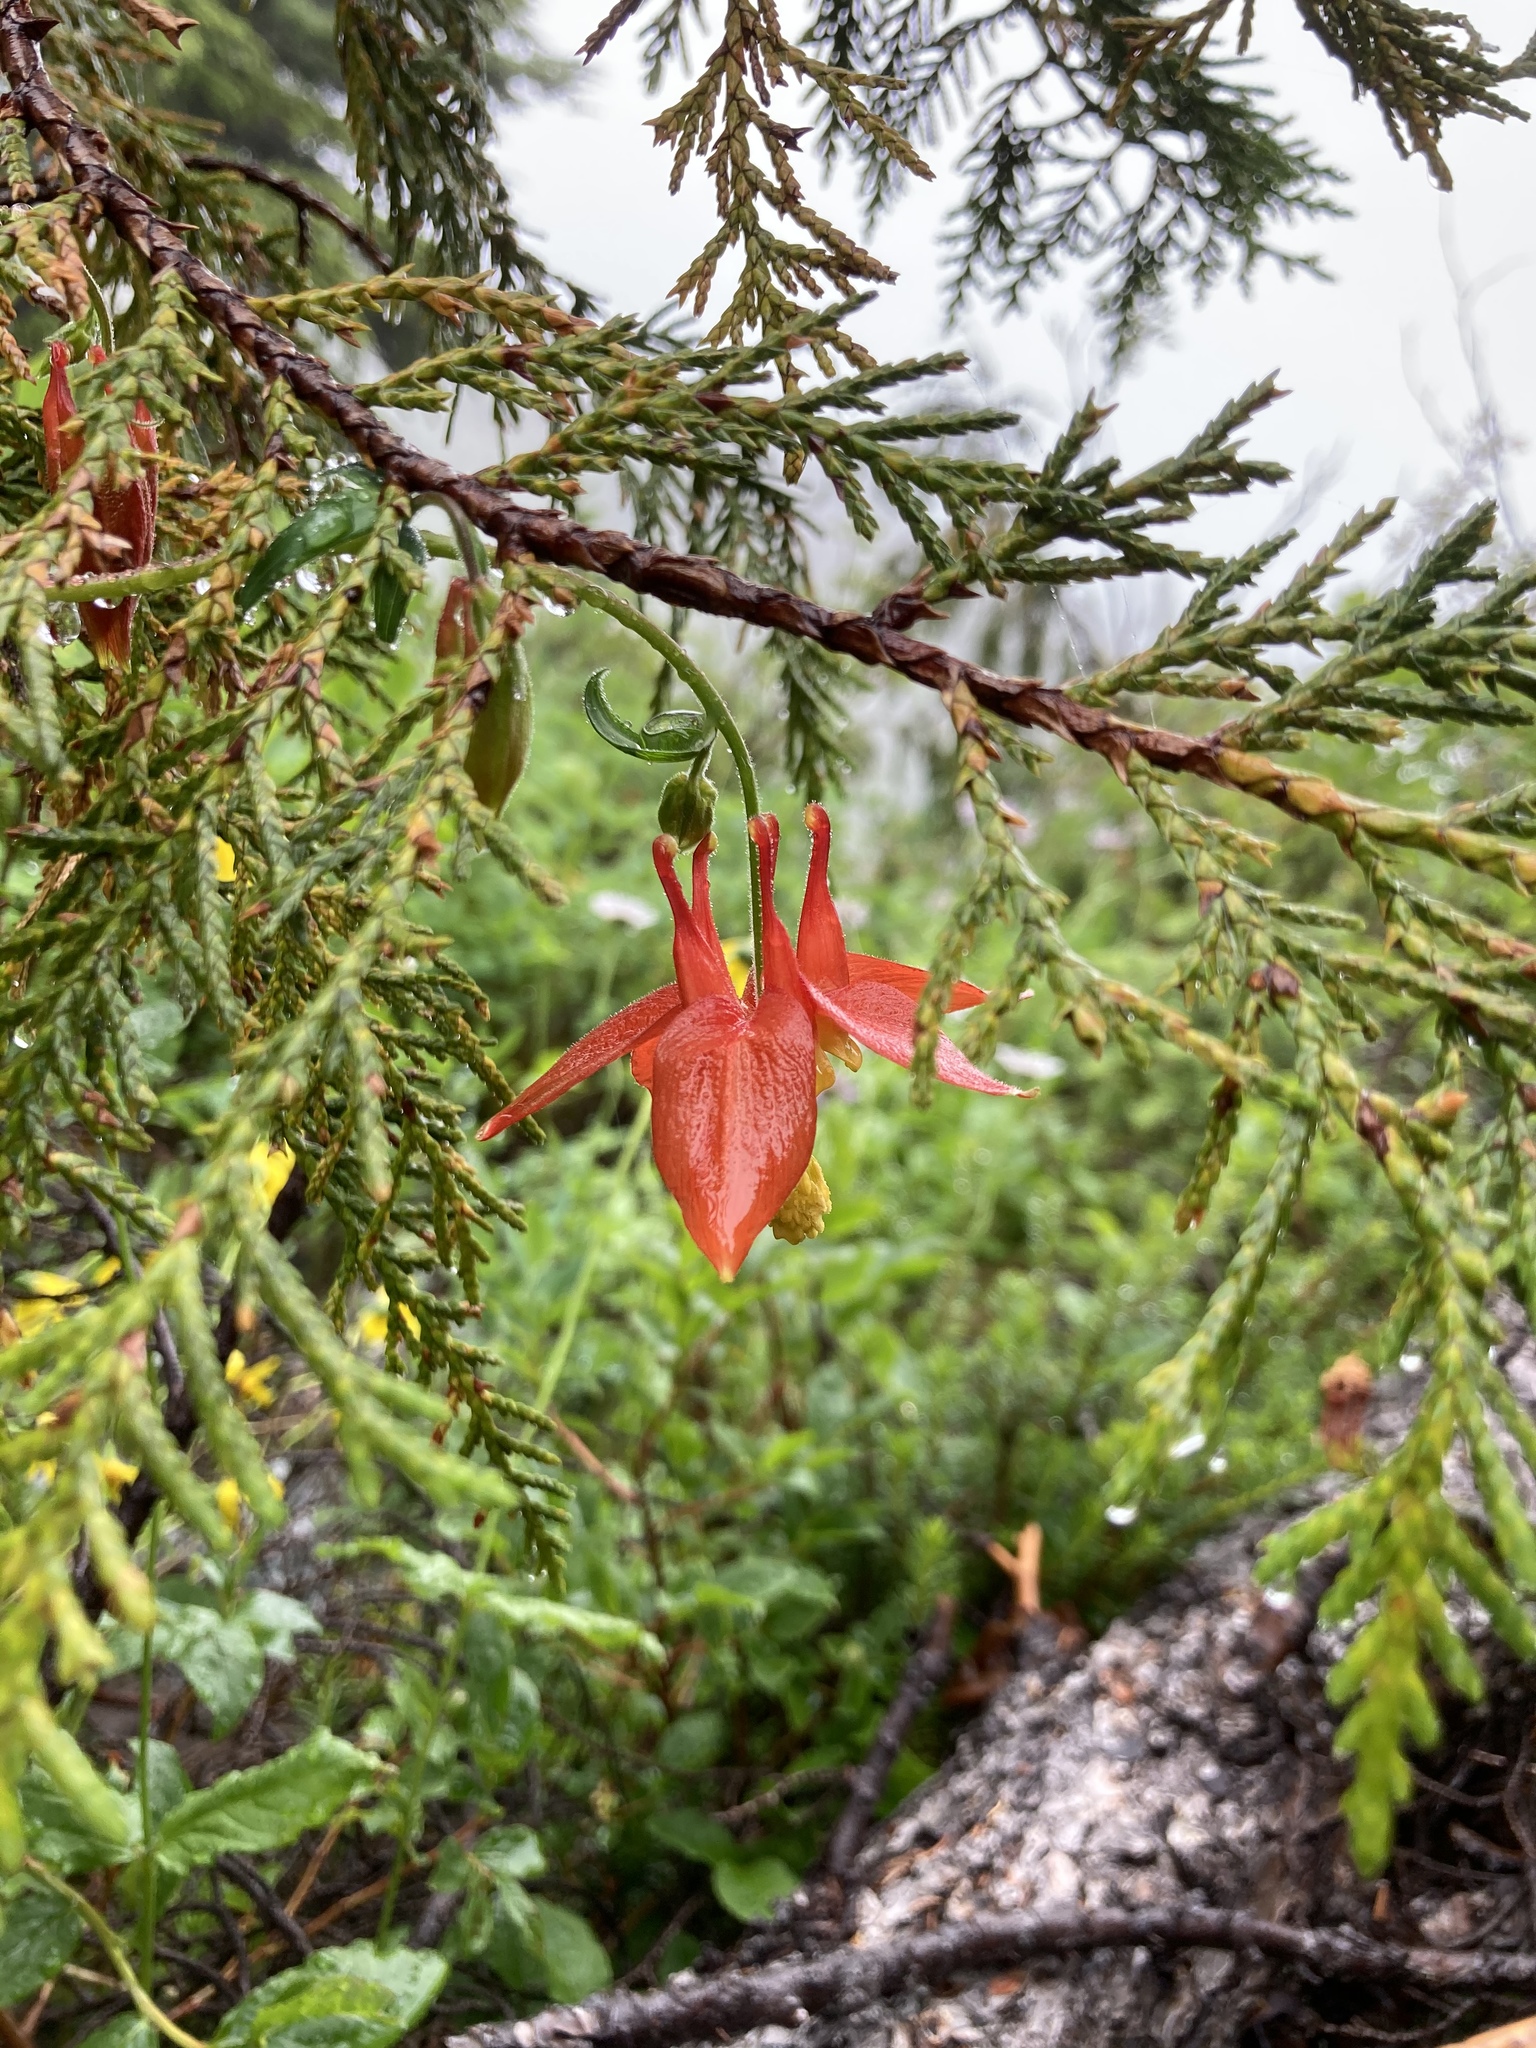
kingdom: Plantae
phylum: Tracheophyta
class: Magnoliopsida
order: Ranunculales
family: Ranunculaceae
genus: Aquilegia
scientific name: Aquilegia formosa
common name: Sitka columbine
